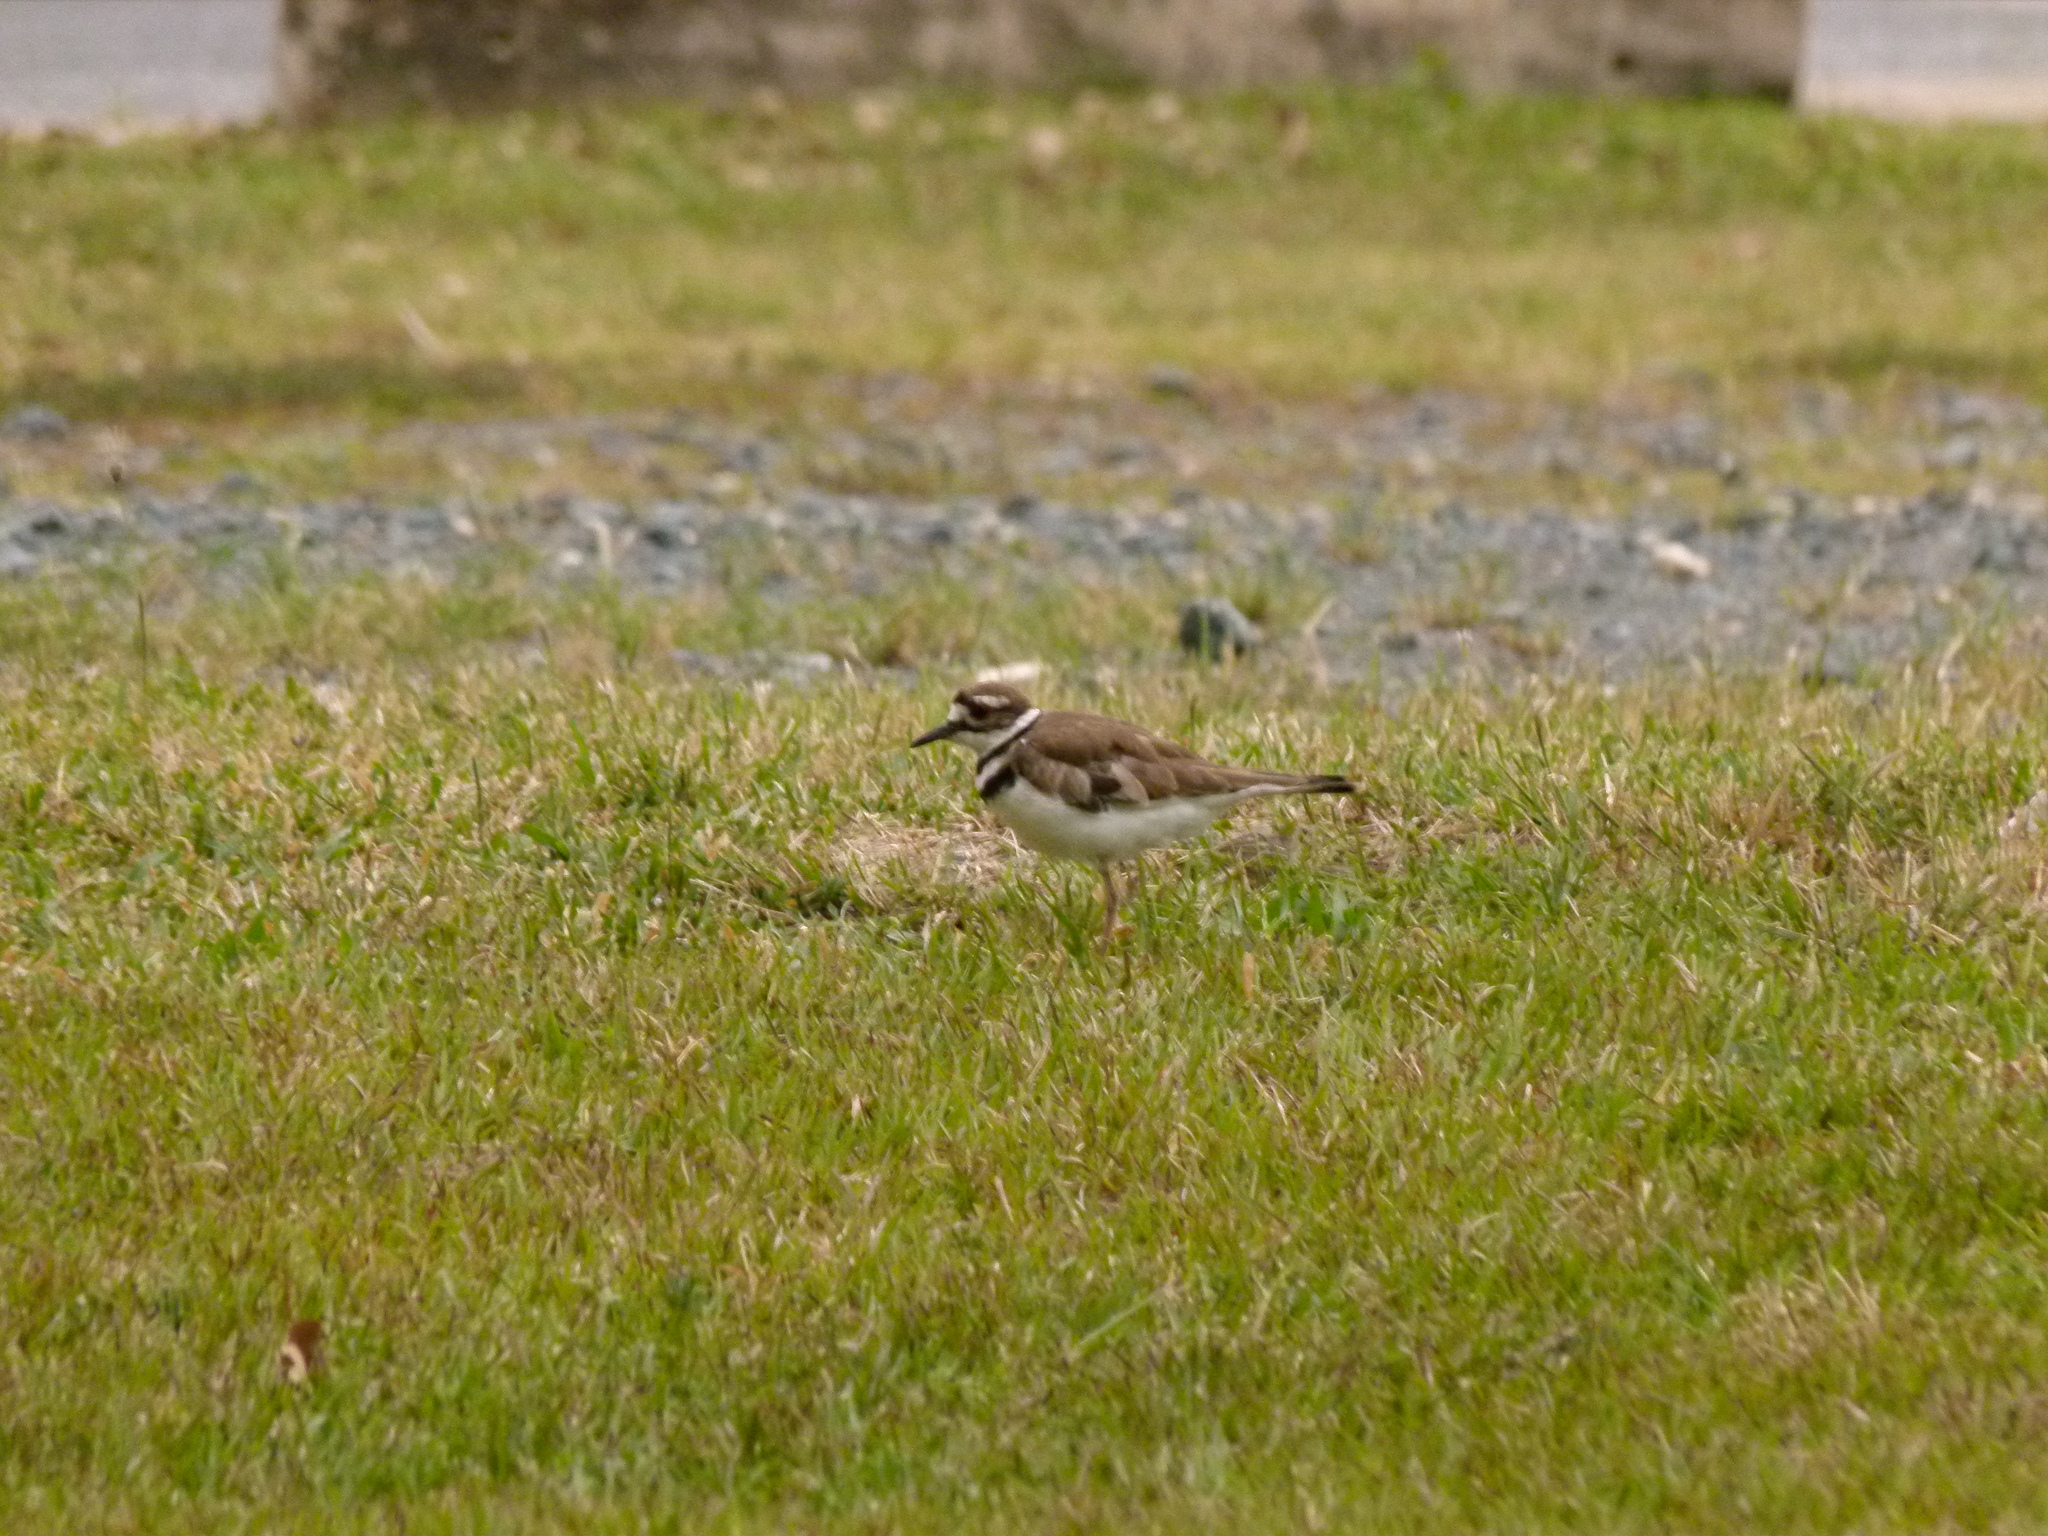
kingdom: Animalia
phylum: Chordata
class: Aves
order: Charadriiformes
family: Charadriidae
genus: Charadrius
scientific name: Charadrius vociferus
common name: Killdeer
